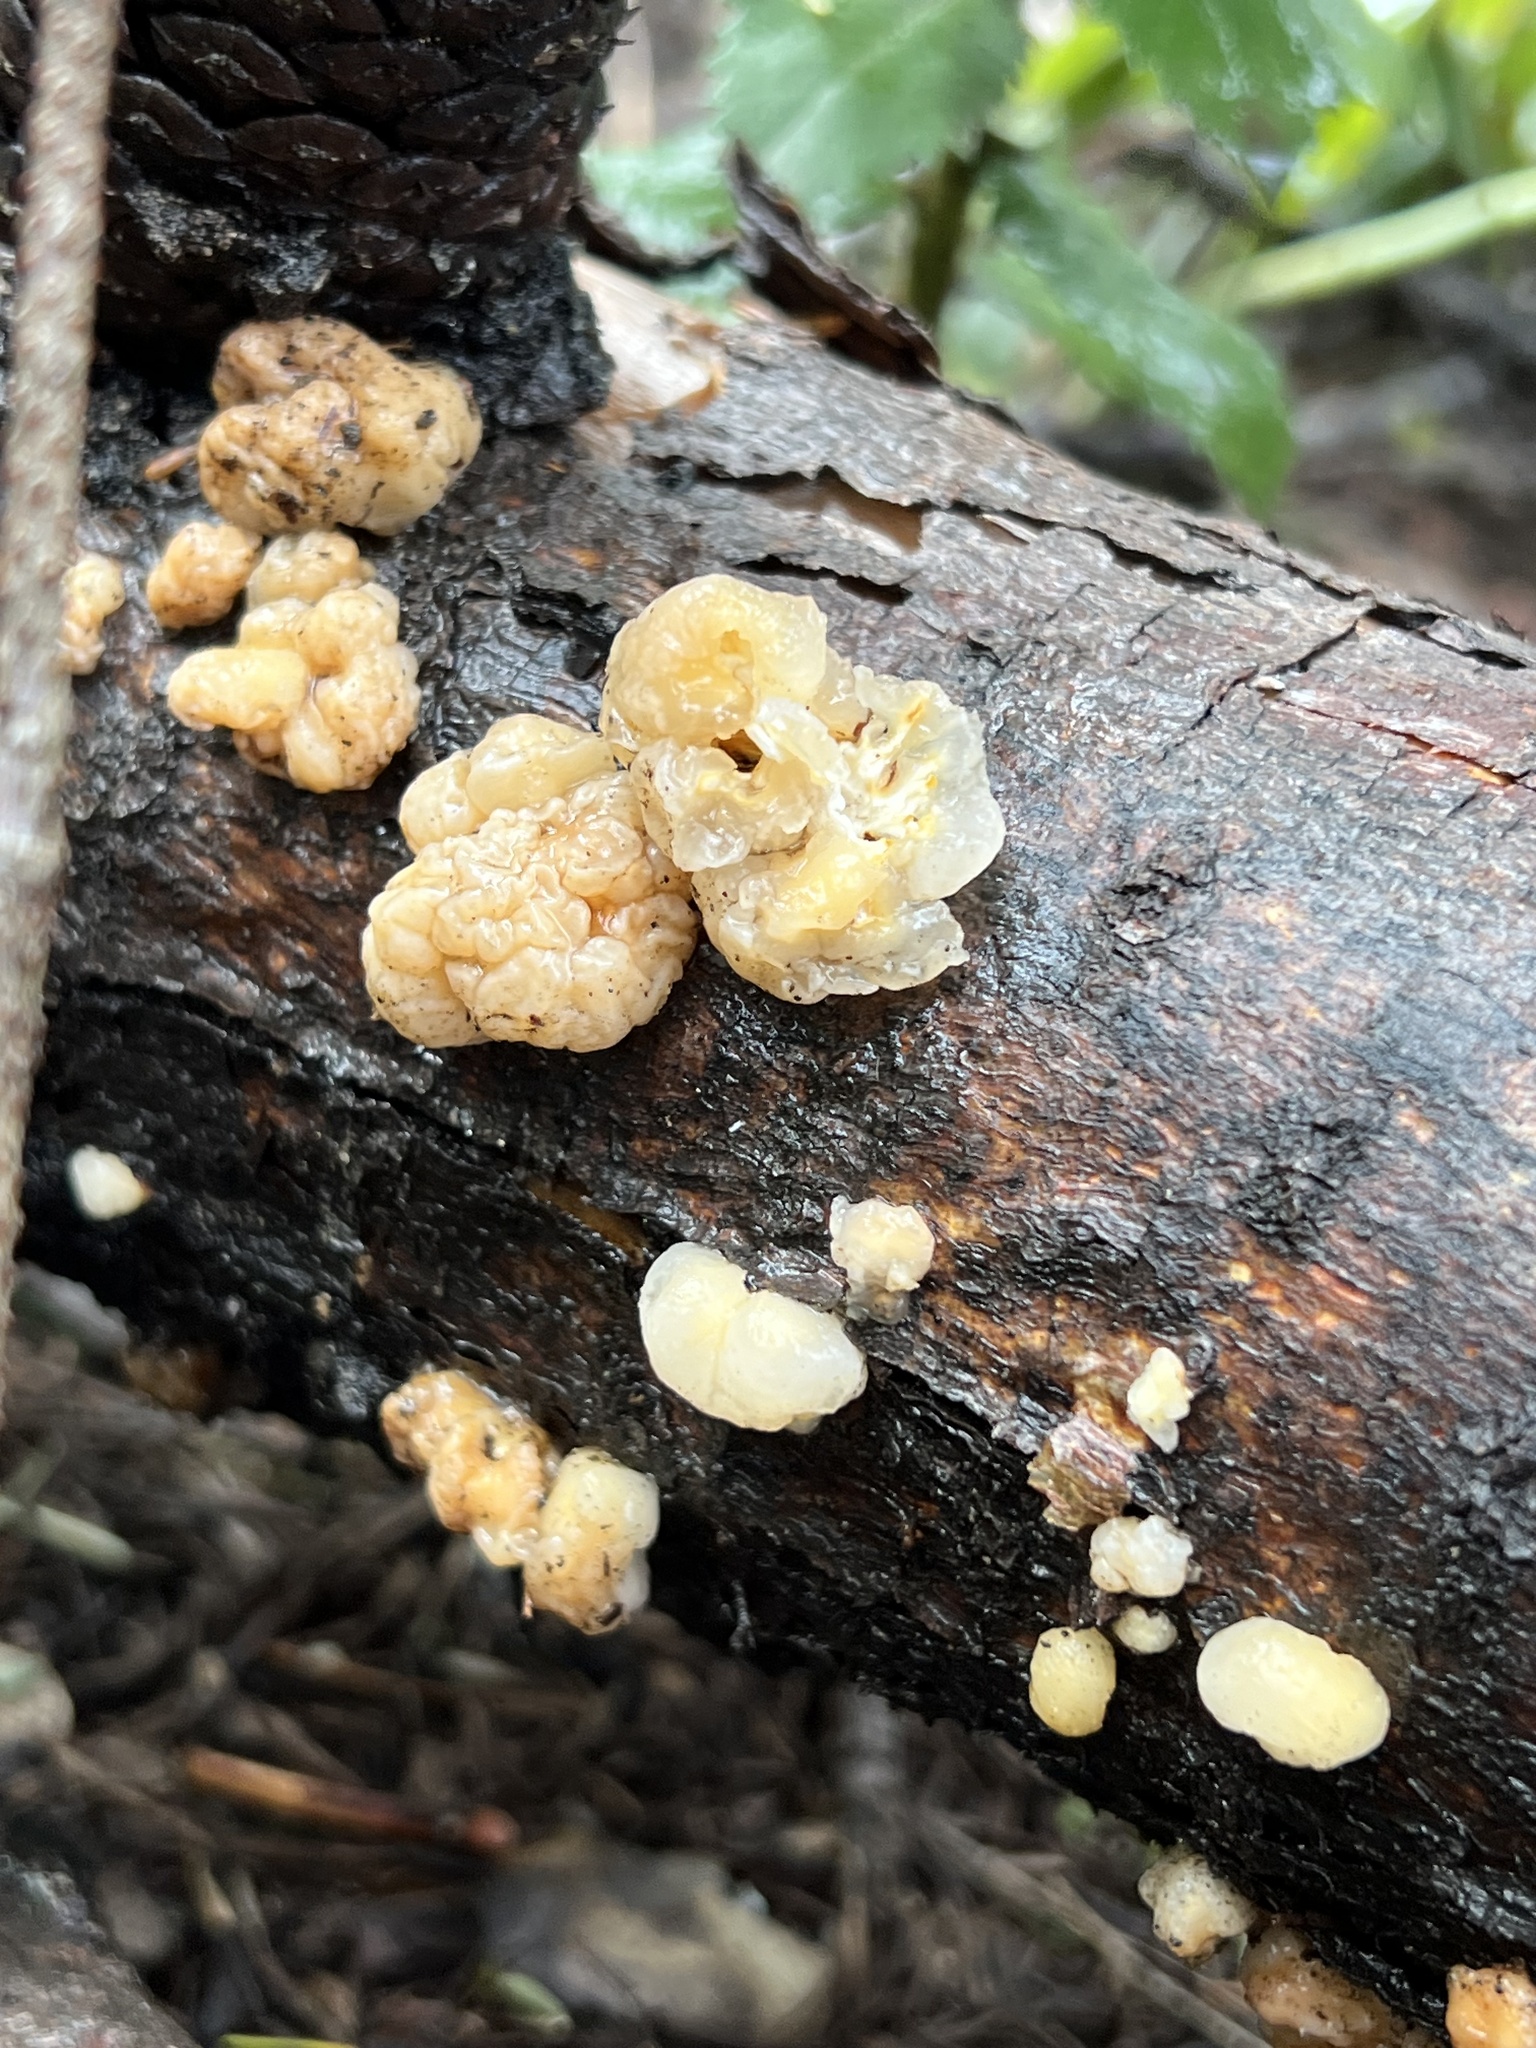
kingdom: Fungi
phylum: Basidiomycota
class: Tremellomycetes
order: Tremellales
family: Naemateliaceae
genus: Naematelia
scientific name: Naematelia encephala
